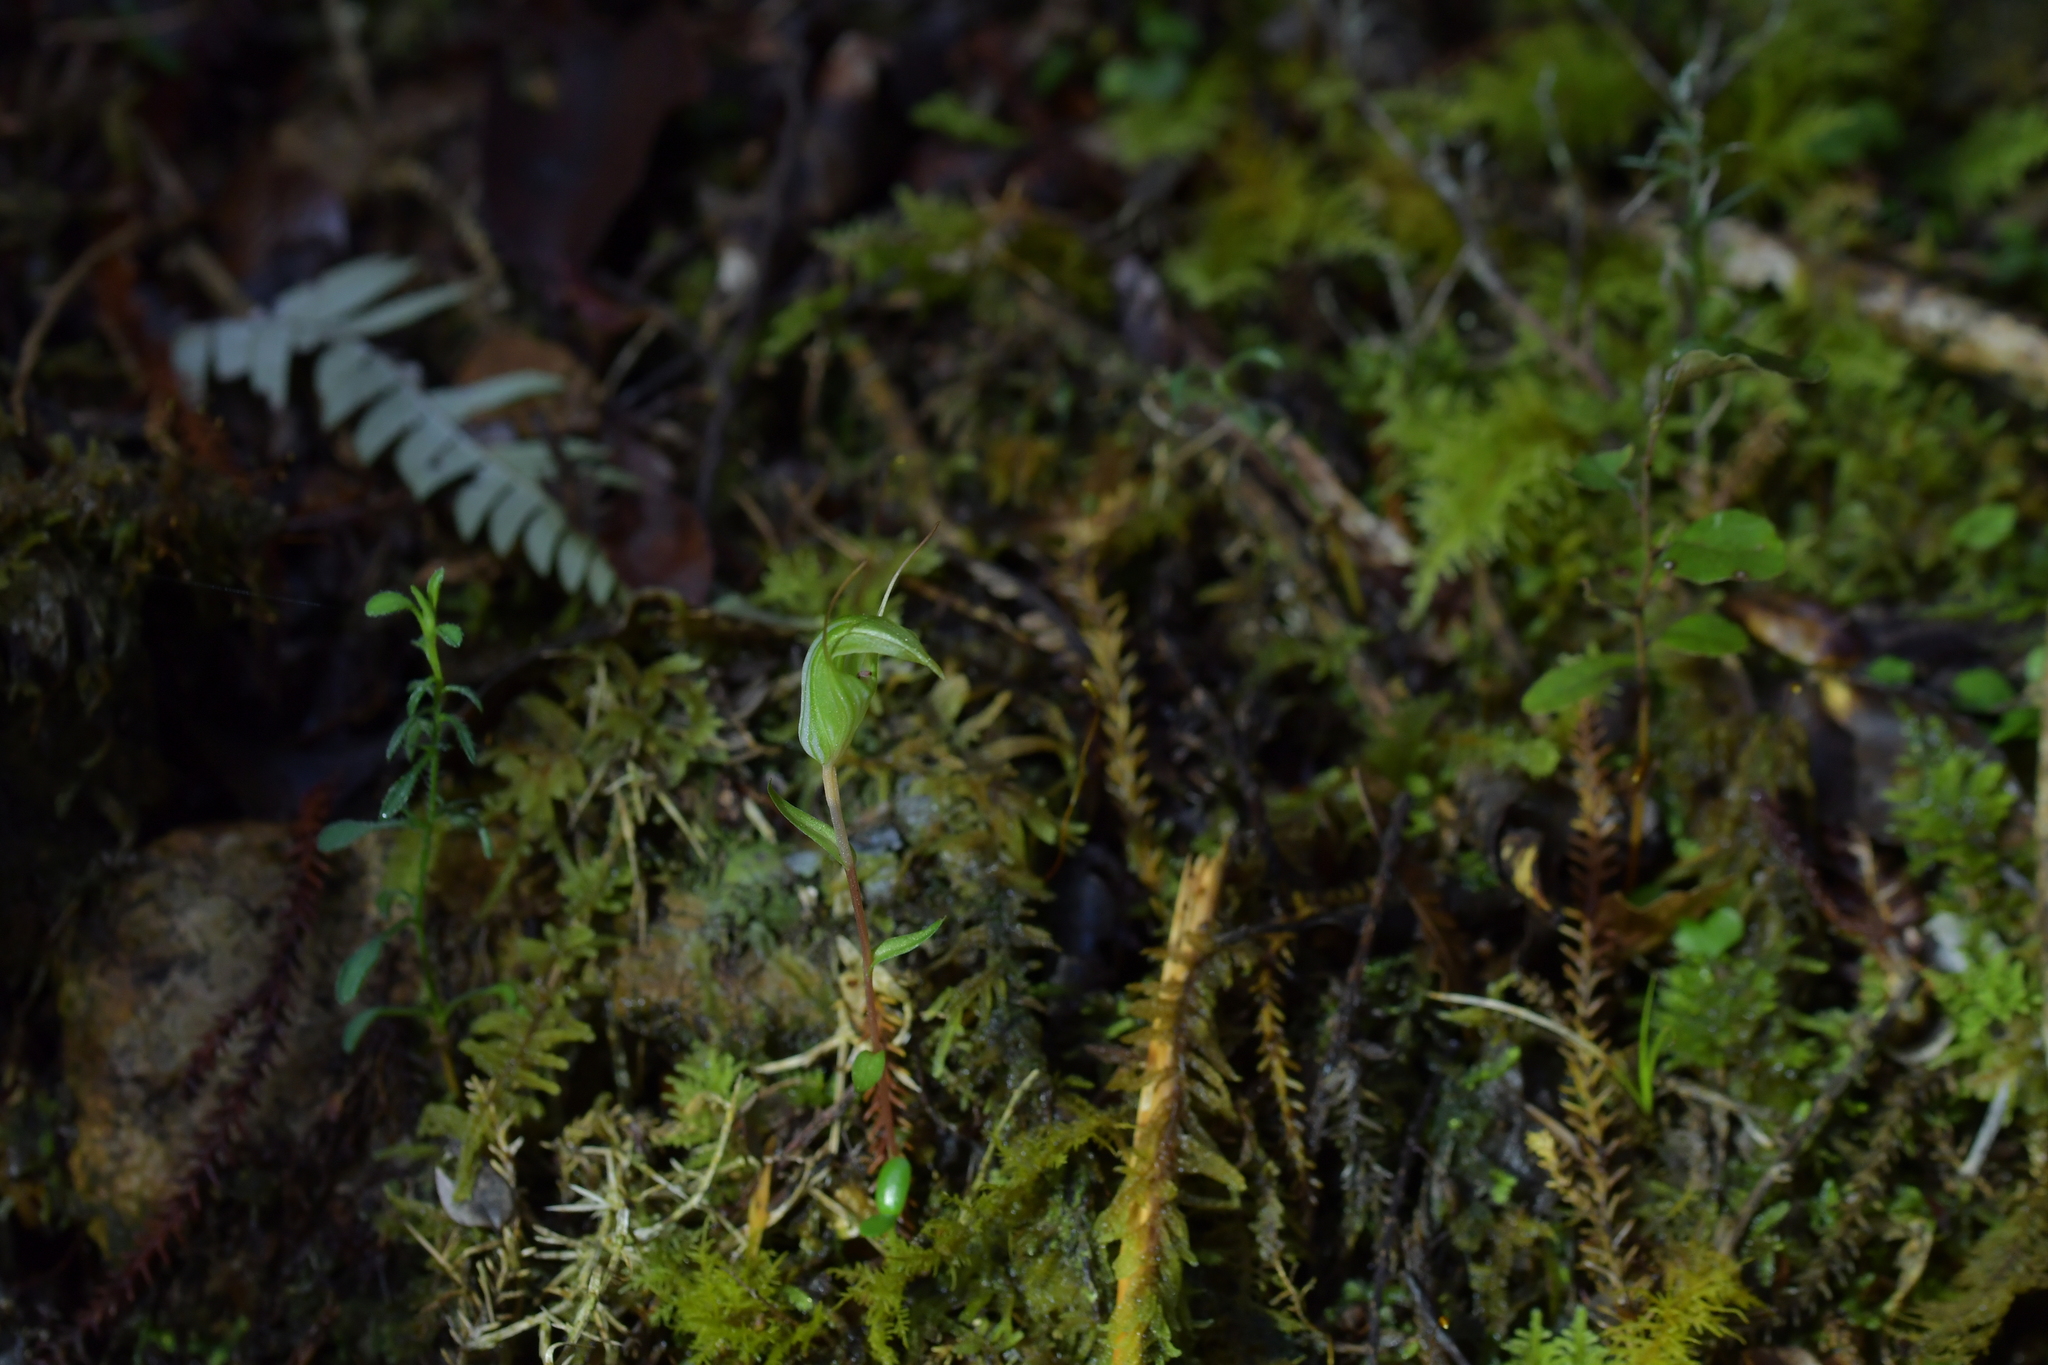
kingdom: Plantae
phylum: Tracheophyta
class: Liliopsida
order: Asparagales
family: Orchidaceae
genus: Pterostylis
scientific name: Pterostylis alobula
